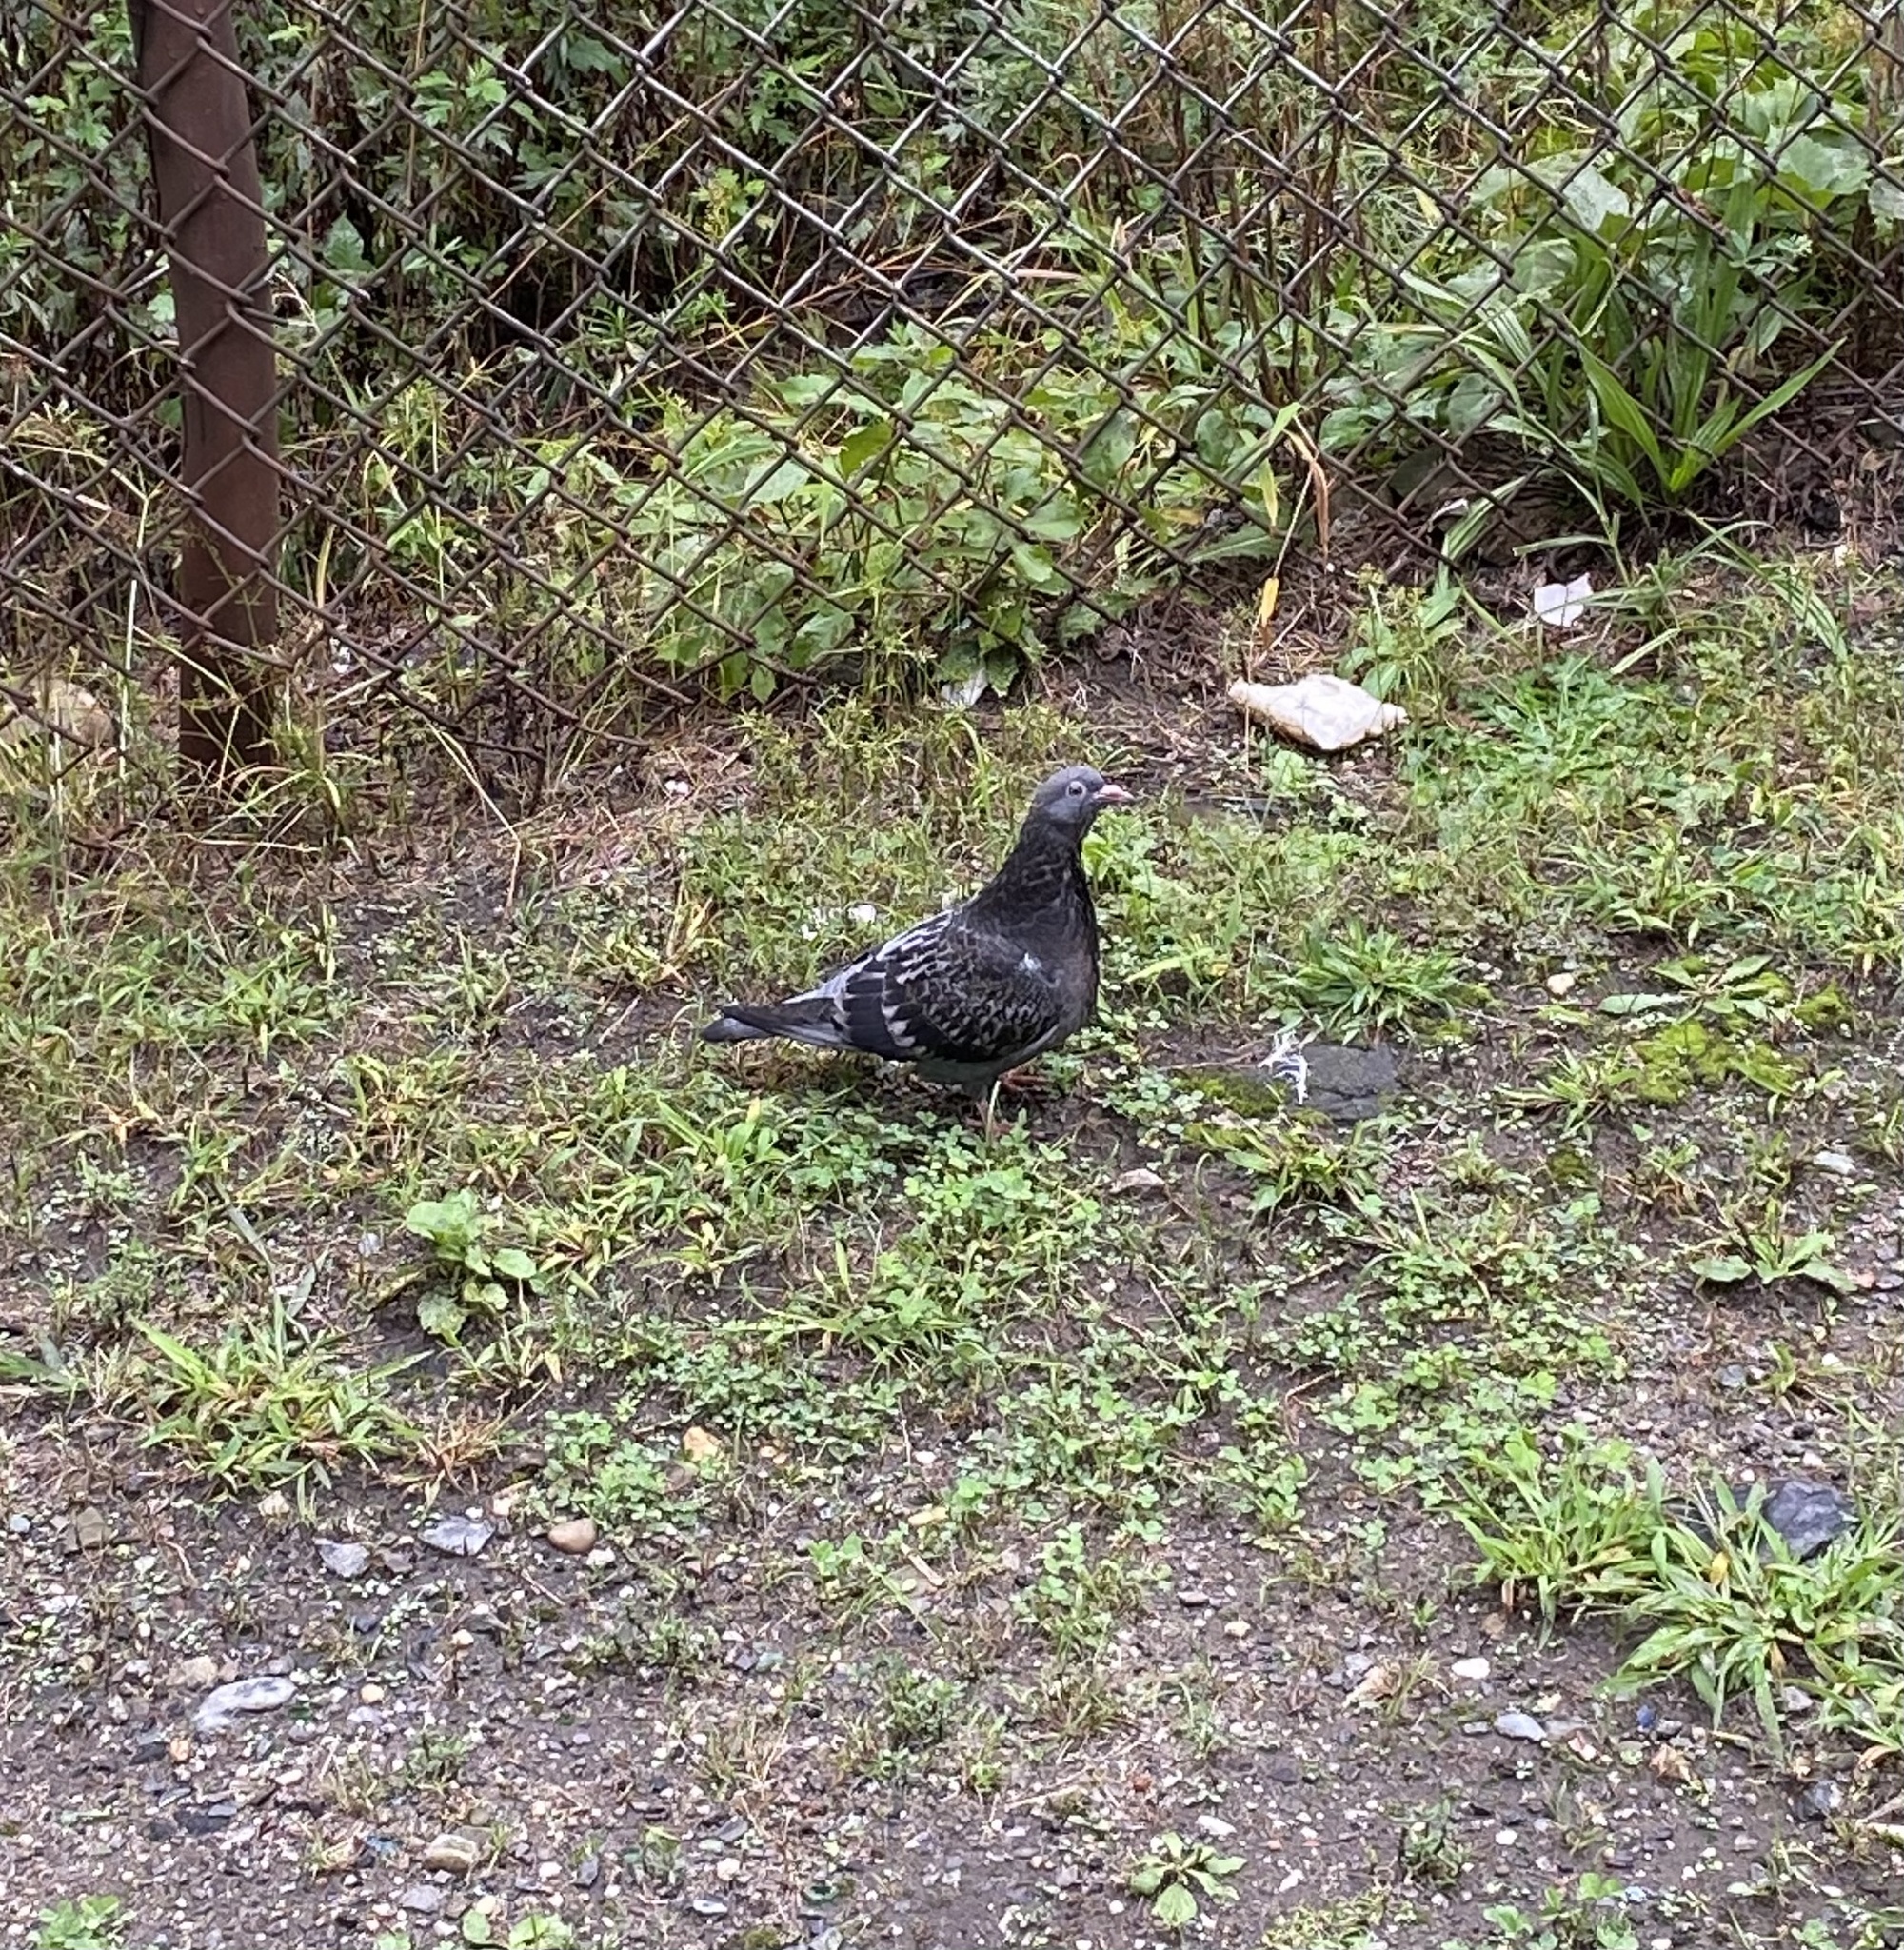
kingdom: Animalia
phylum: Chordata
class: Aves
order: Columbiformes
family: Columbidae
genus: Columba
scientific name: Columba livia
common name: Rock pigeon
